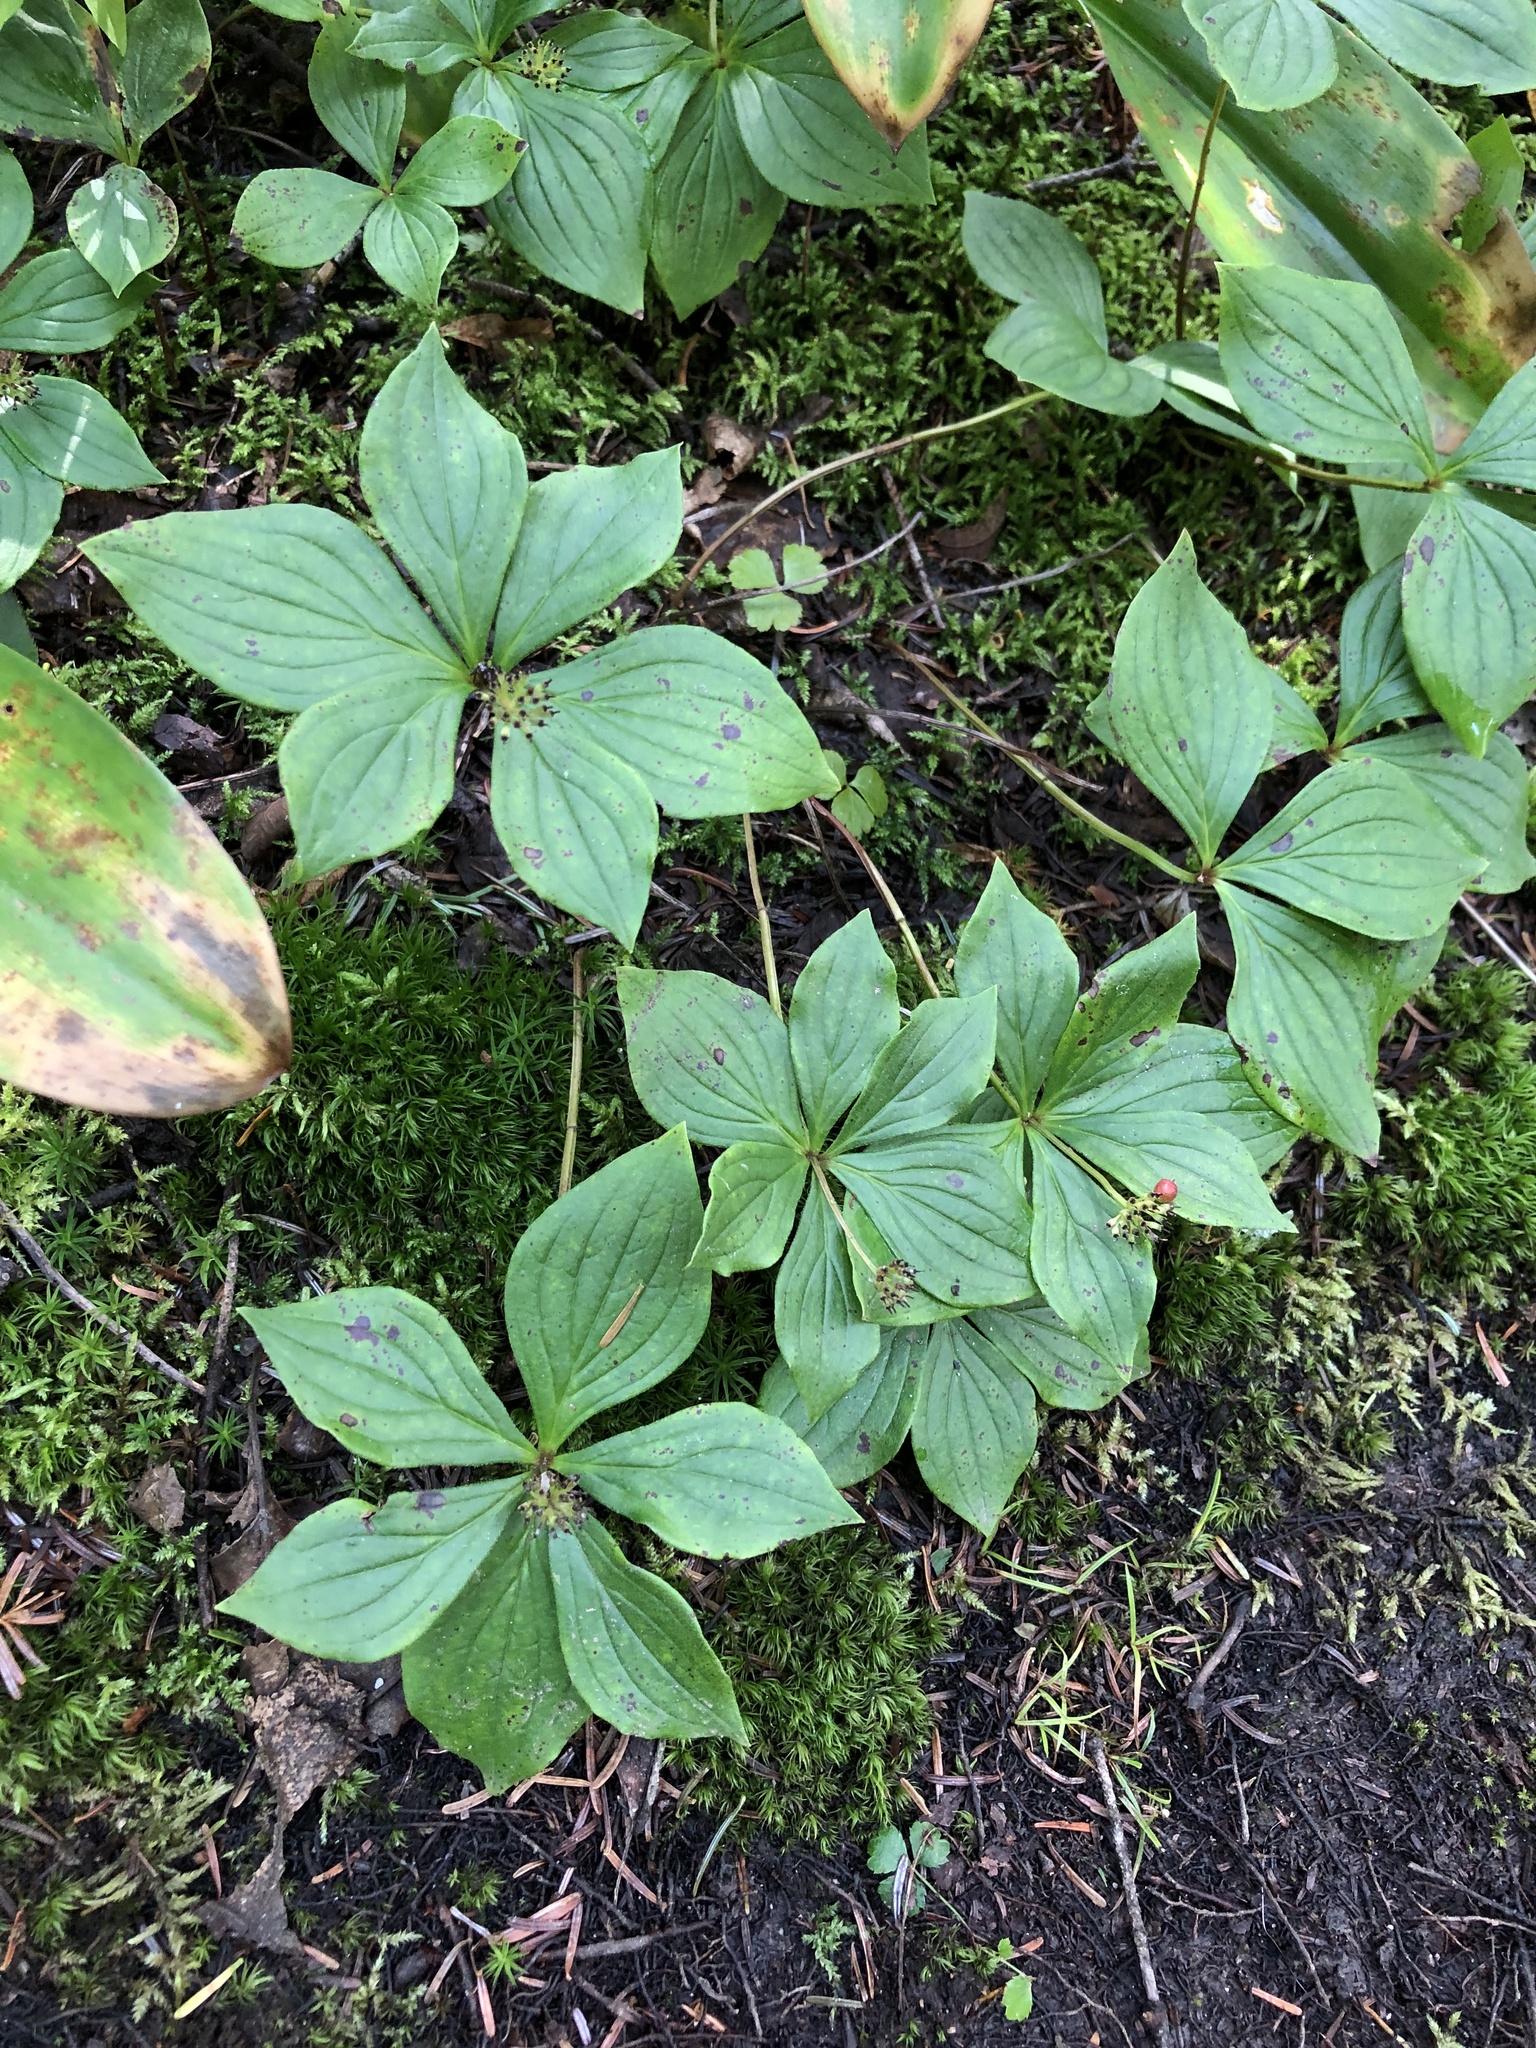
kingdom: Plantae
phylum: Tracheophyta
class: Magnoliopsida
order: Cornales
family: Cornaceae
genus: Cornus
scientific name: Cornus canadensis
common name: Creeping dogwood
